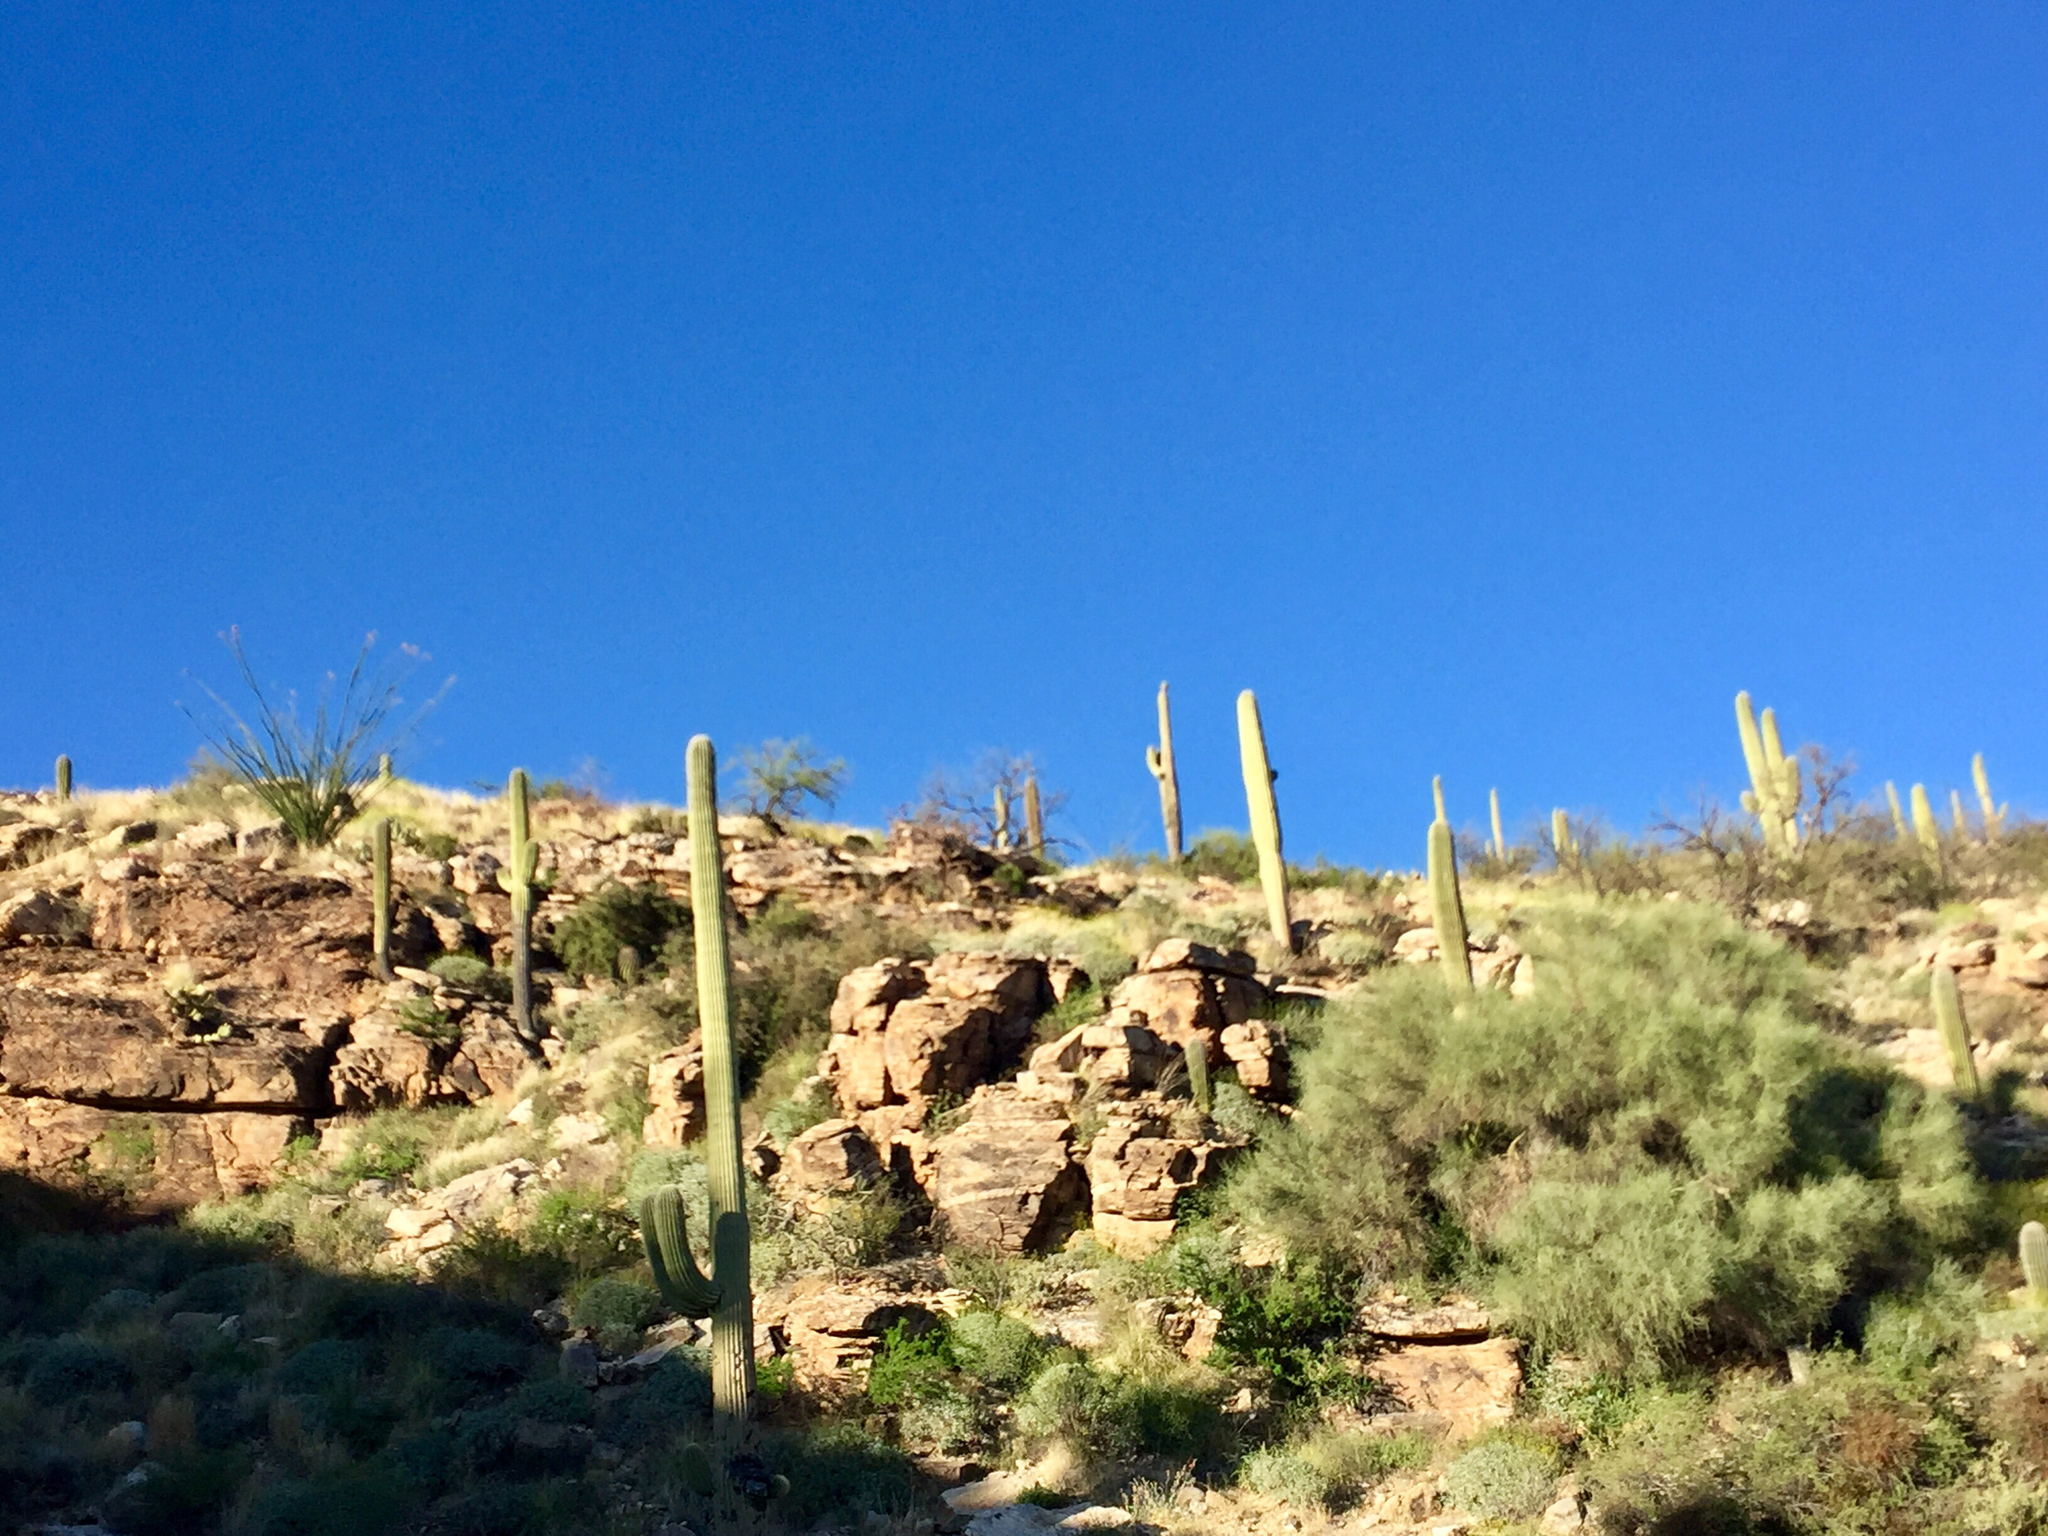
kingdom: Plantae
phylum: Tracheophyta
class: Magnoliopsida
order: Caryophyllales
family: Cactaceae
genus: Carnegiea
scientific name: Carnegiea gigantea
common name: Saguaro
